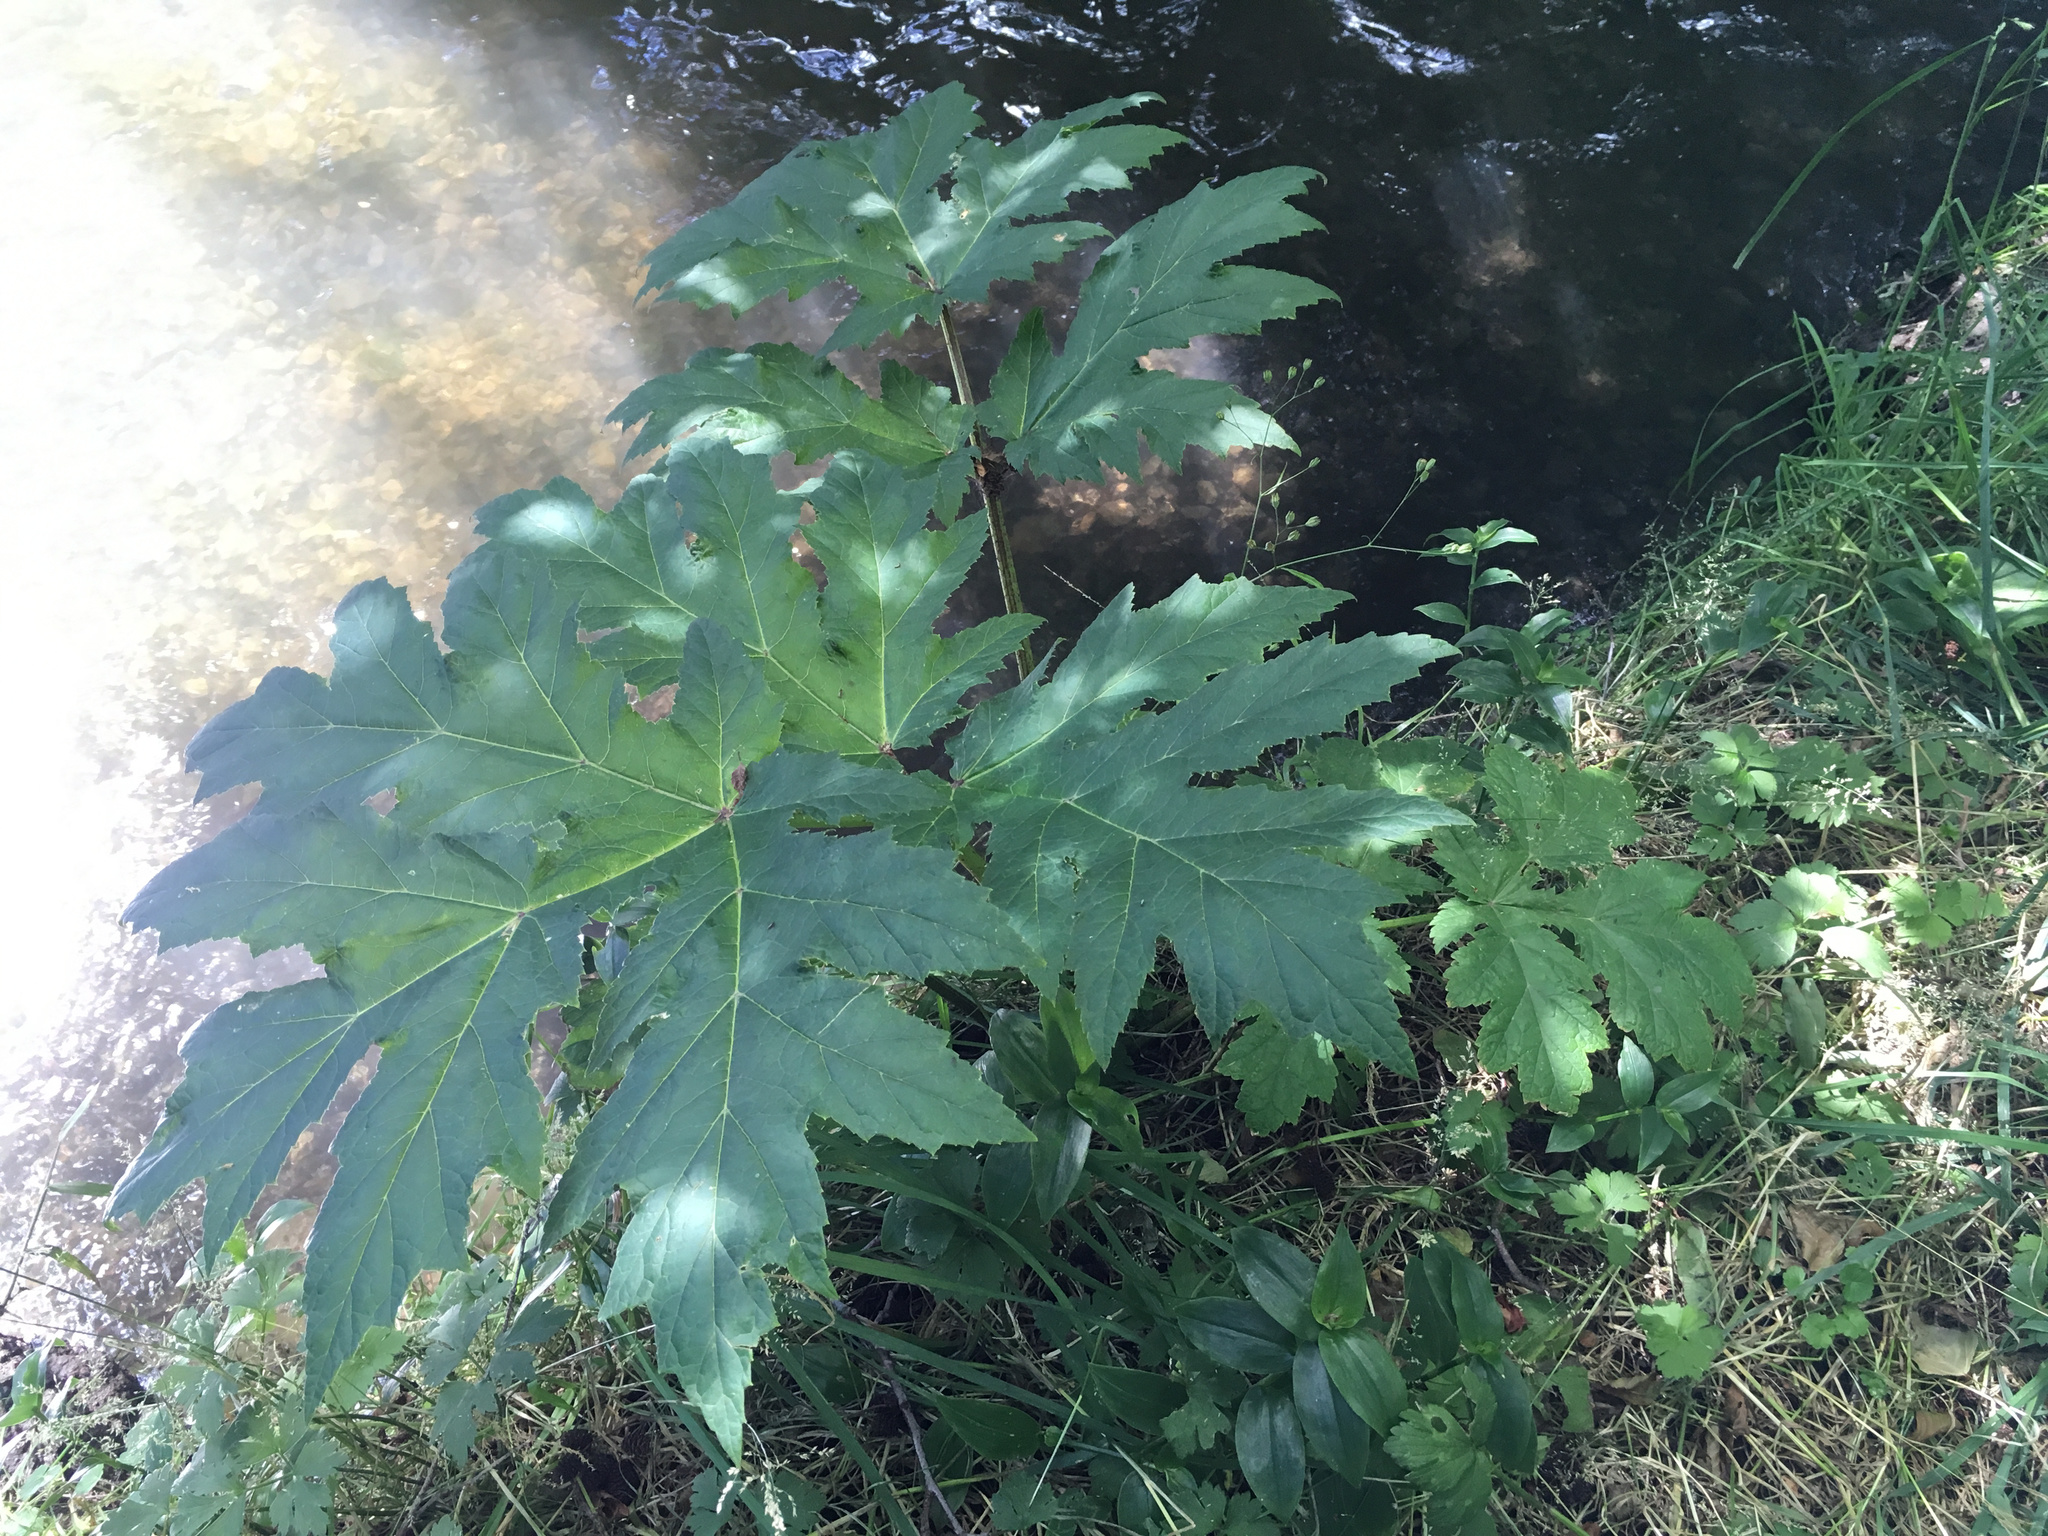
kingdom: Plantae
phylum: Tracheophyta
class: Magnoliopsida
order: Apiales
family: Apiaceae
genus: Heracleum
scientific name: Heracleum mantegazzianum
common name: Giant hogweed
